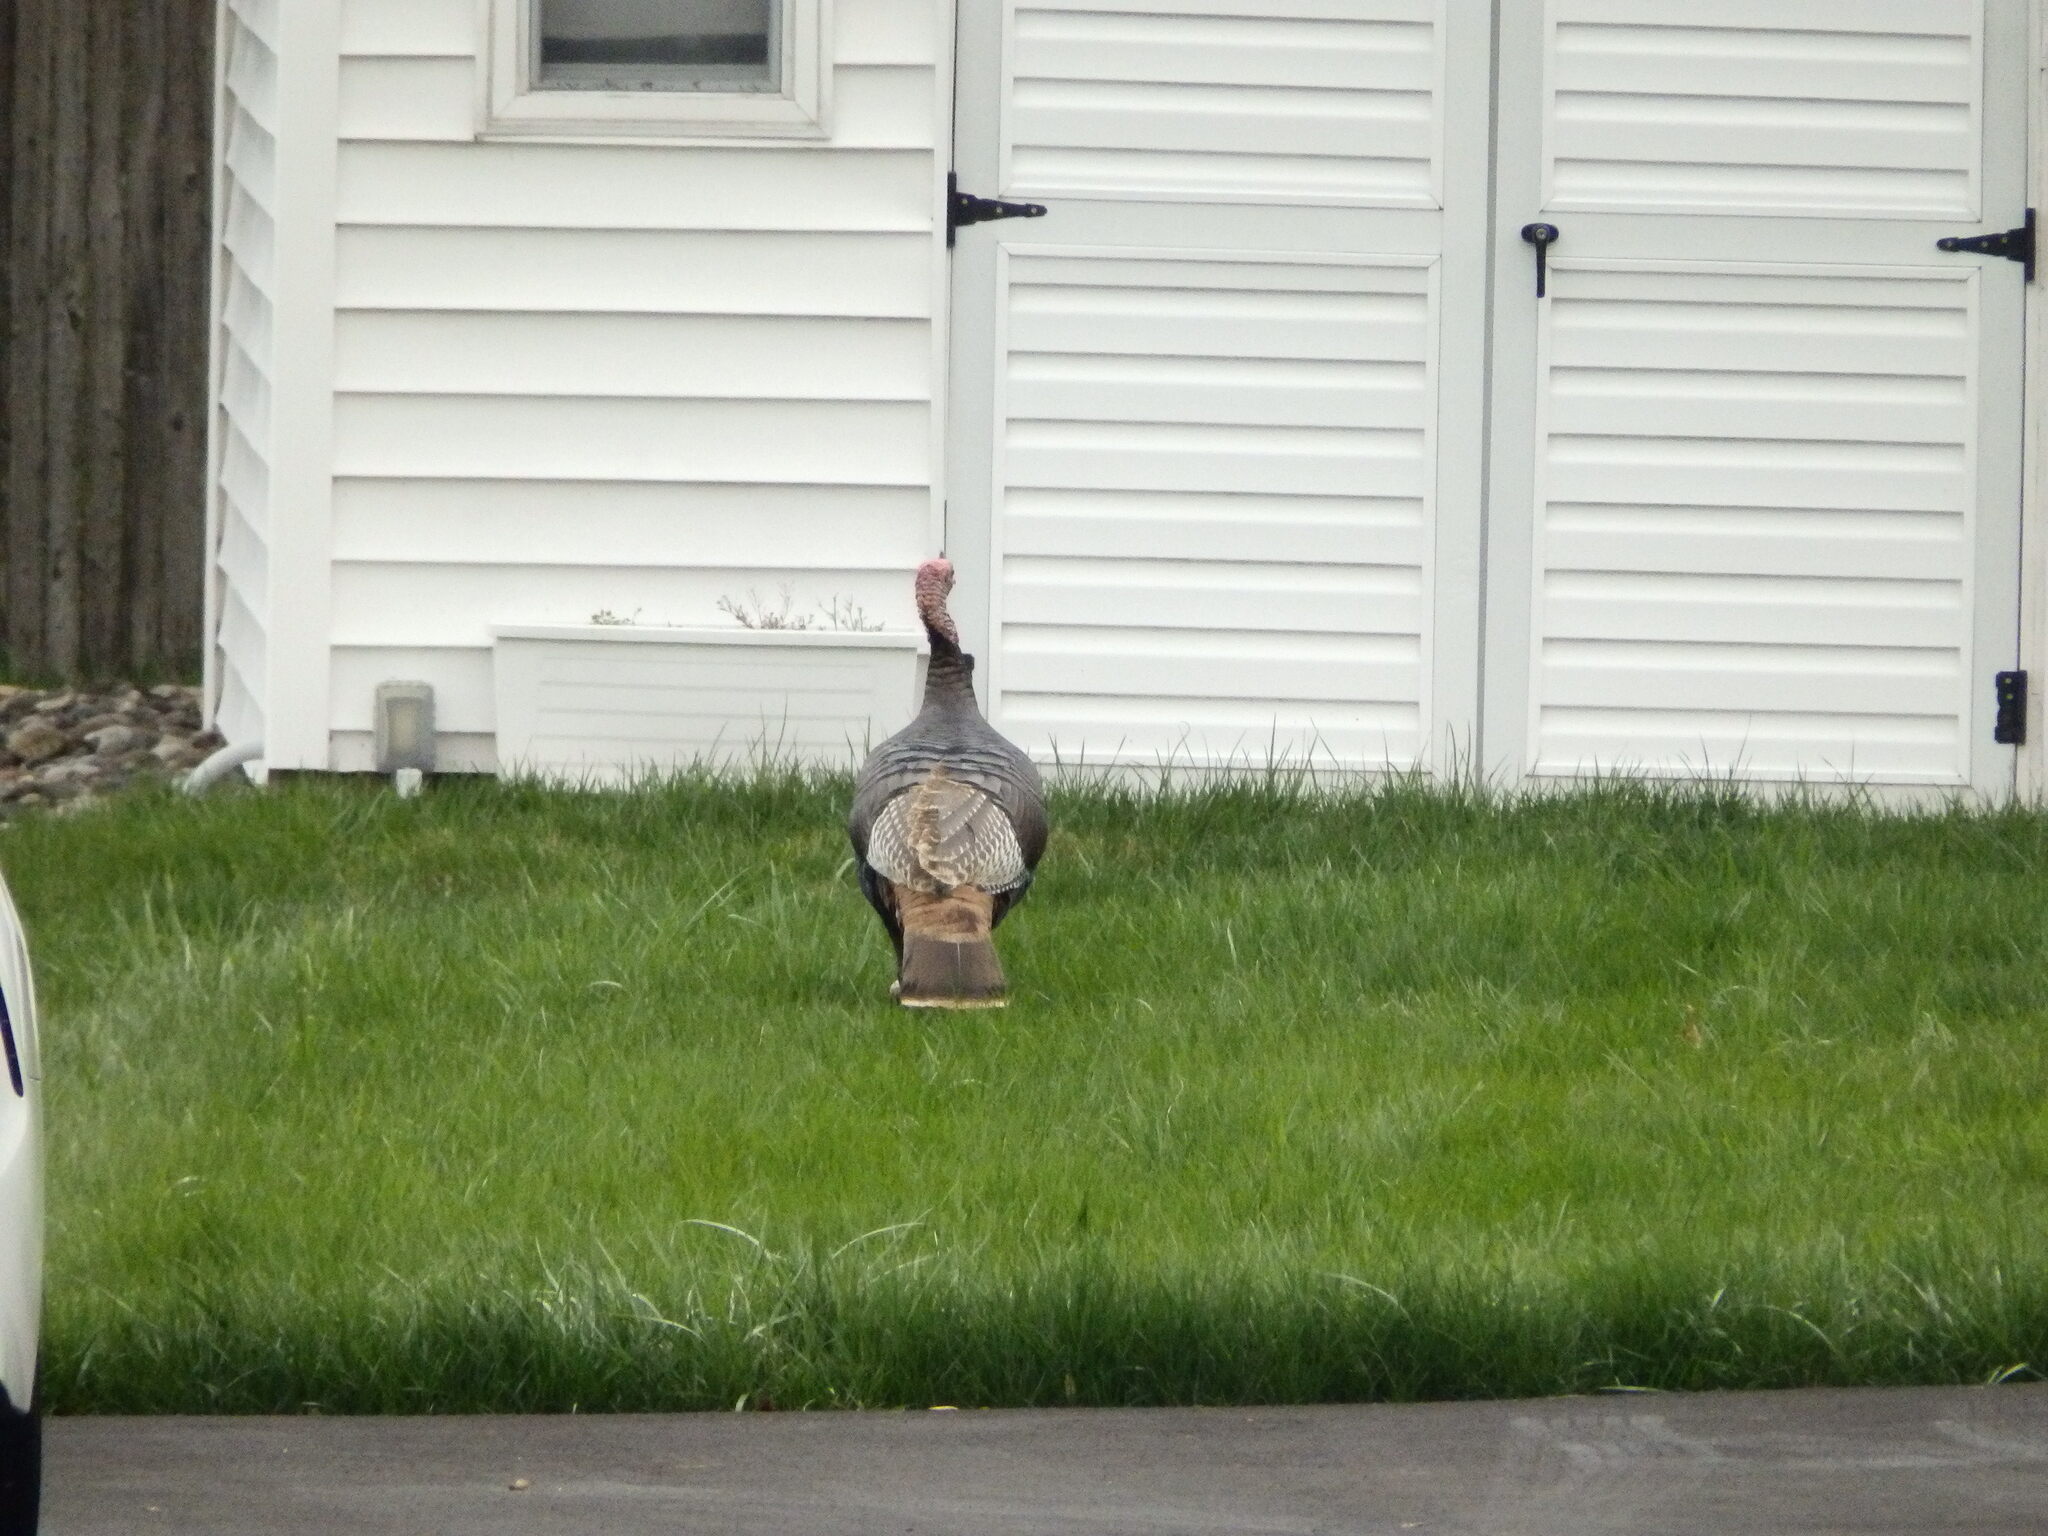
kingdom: Animalia
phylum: Chordata
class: Aves
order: Galliformes
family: Phasianidae
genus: Meleagris
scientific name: Meleagris gallopavo
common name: Wild turkey
